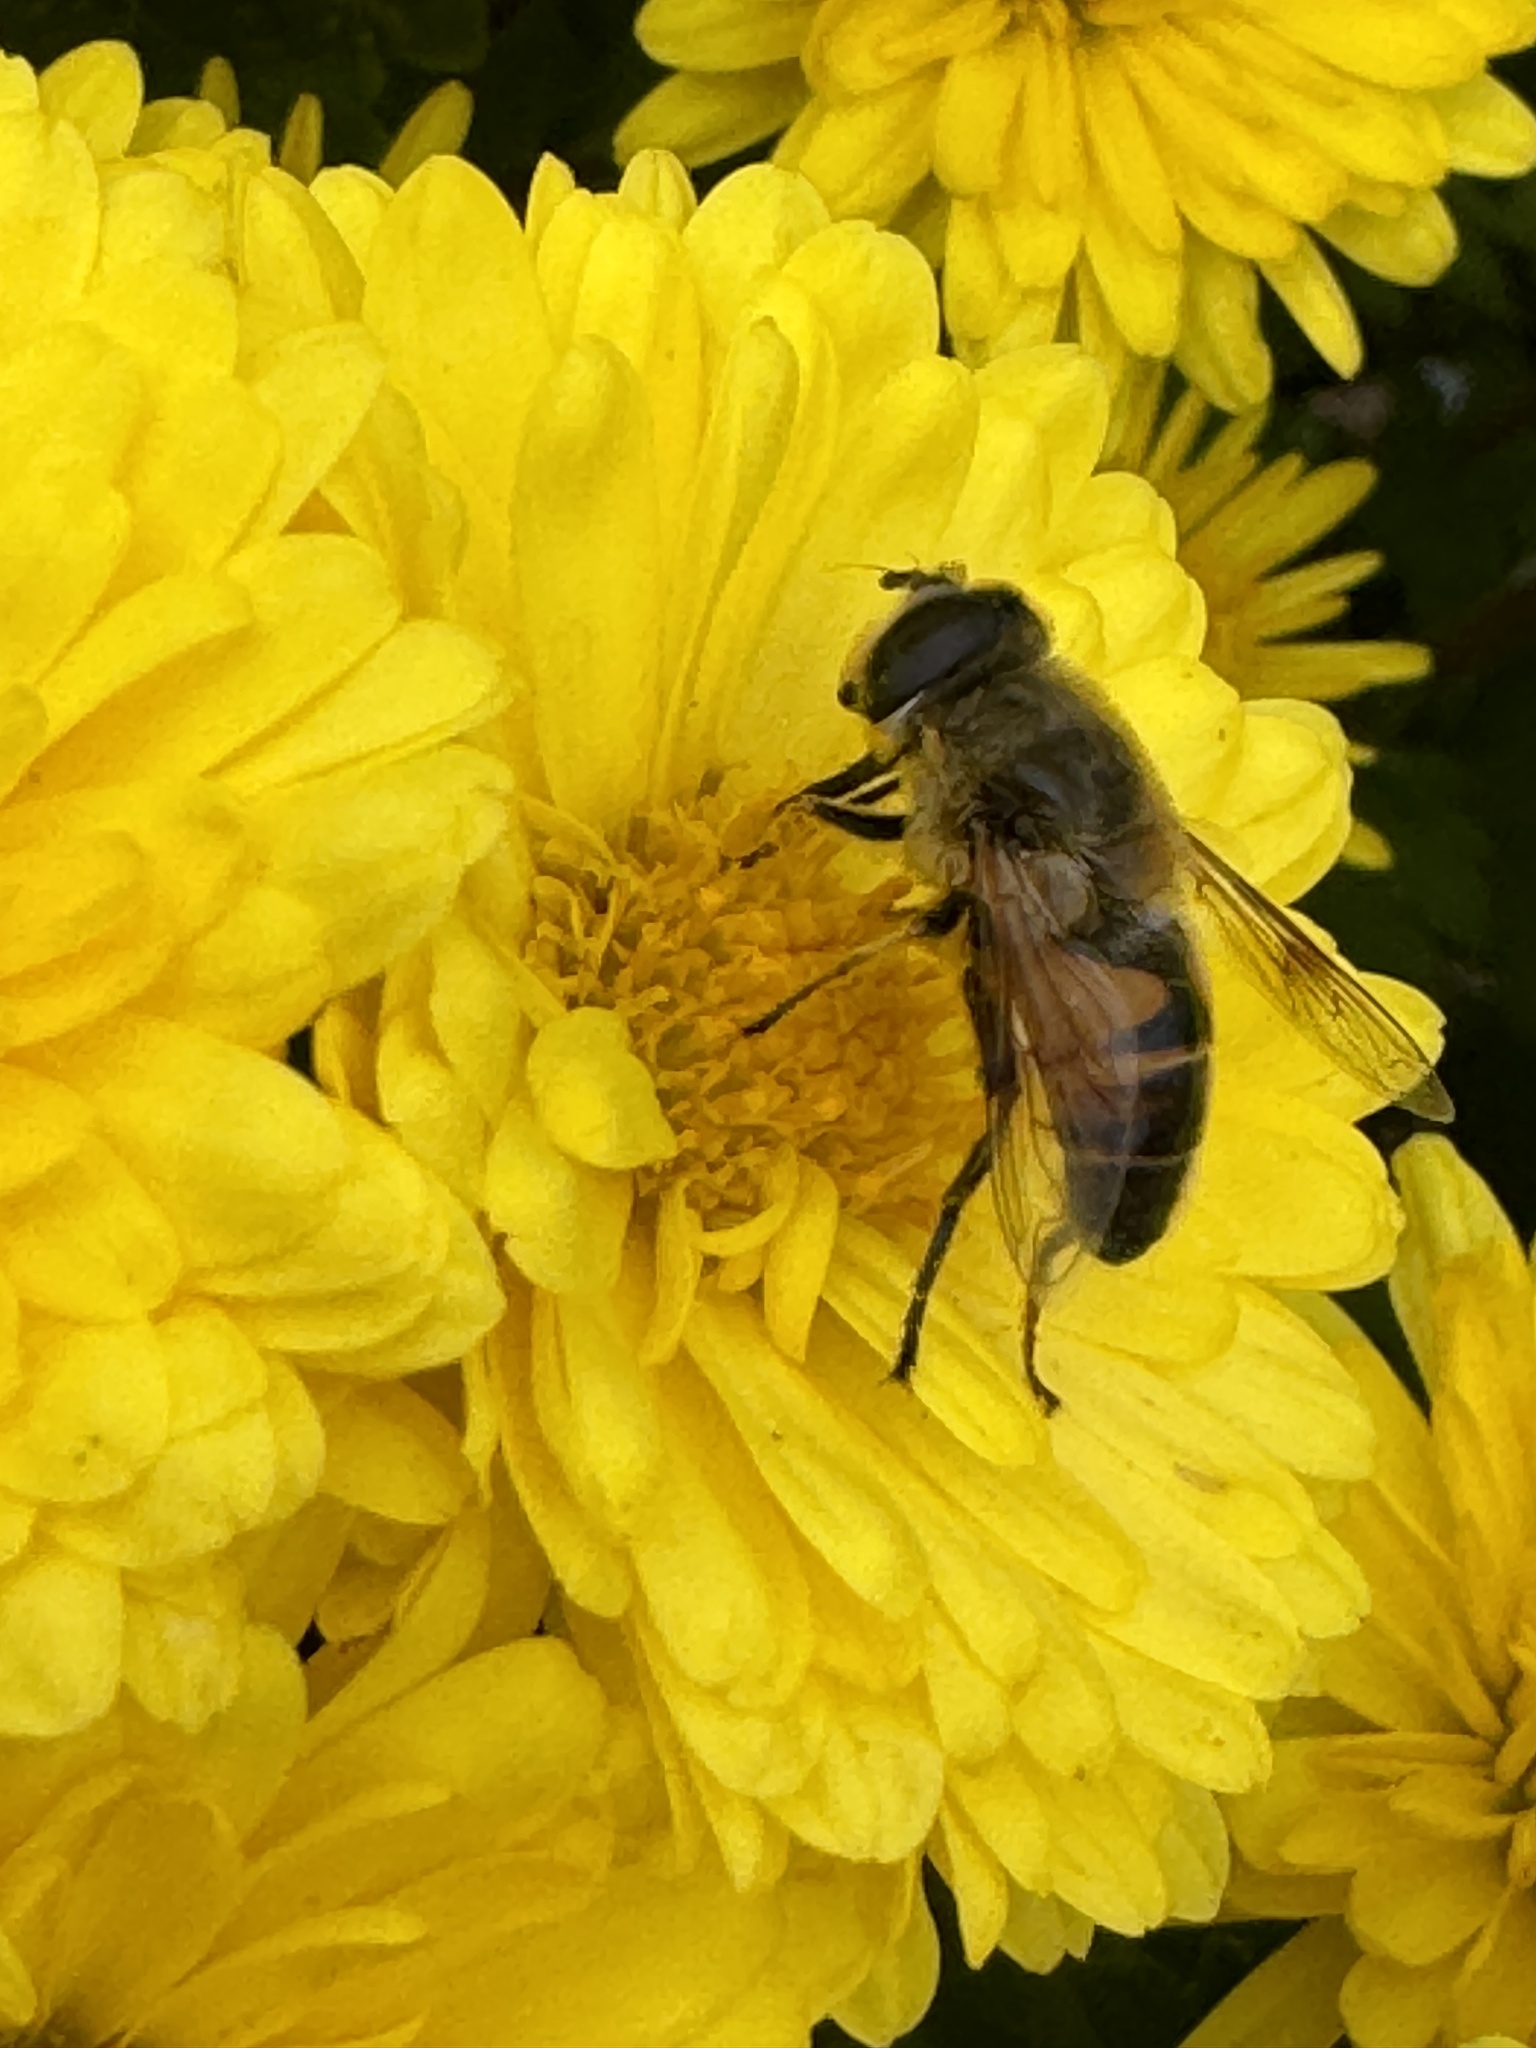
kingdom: Animalia
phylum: Arthropoda
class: Insecta
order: Diptera
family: Syrphidae
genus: Eristalis
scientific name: Eristalis tenax
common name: Drone fly
